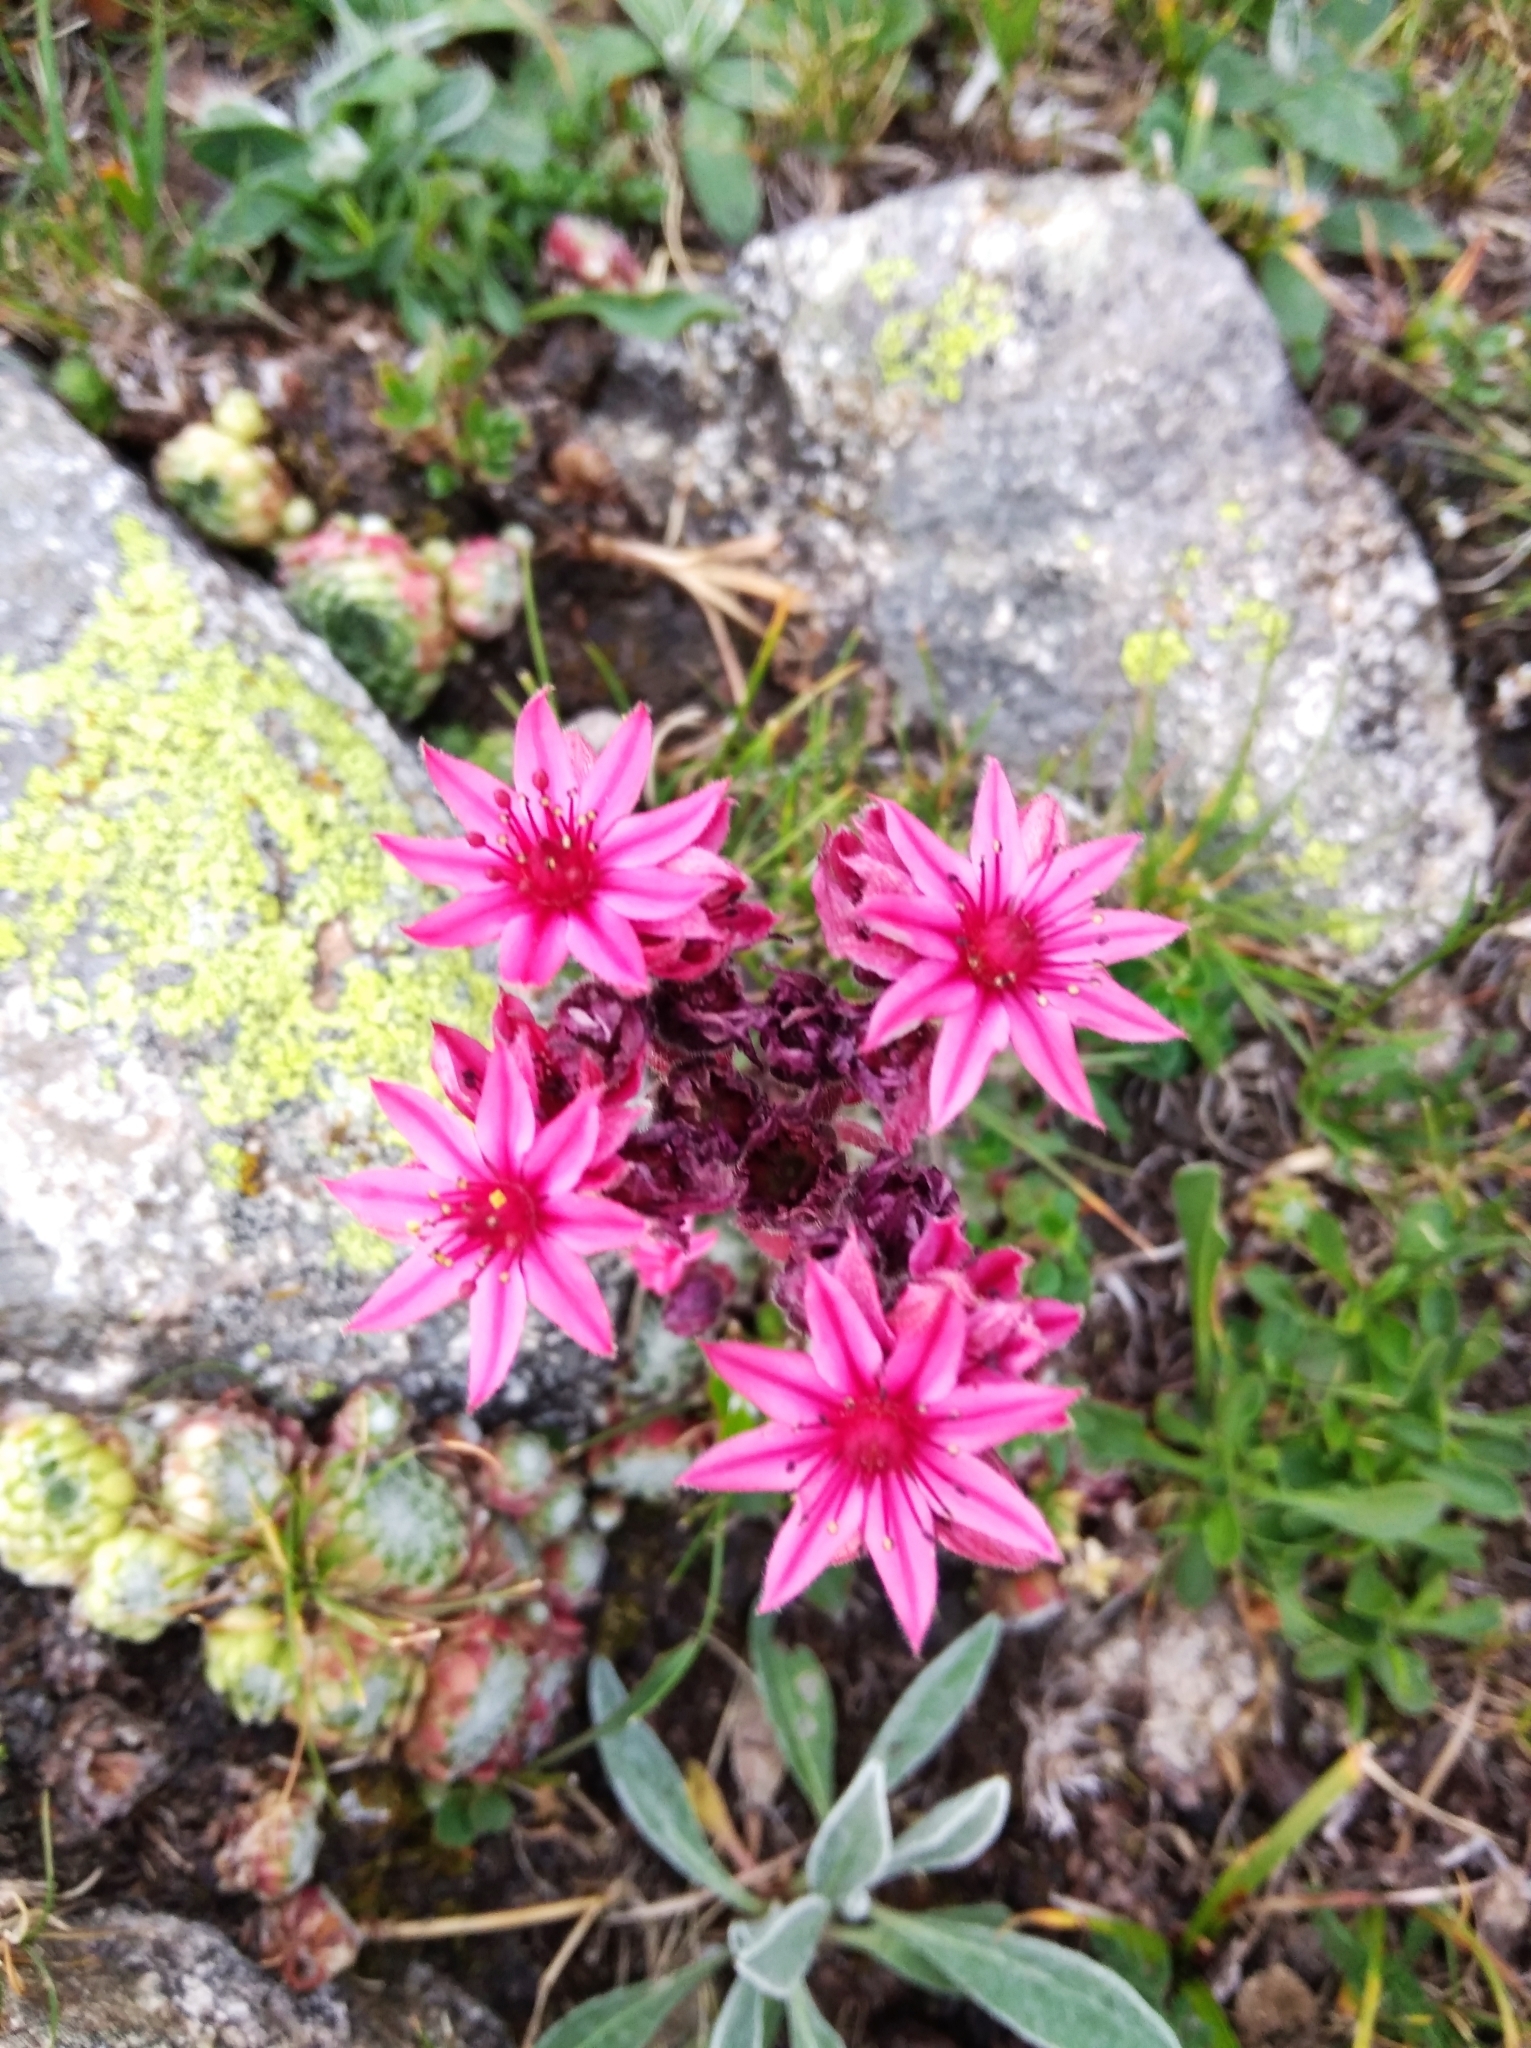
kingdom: Plantae
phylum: Tracheophyta
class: Magnoliopsida
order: Saxifragales
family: Crassulaceae
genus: Sempervivum
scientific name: Sempervivum arachnoideum
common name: Cobweb house-leek
